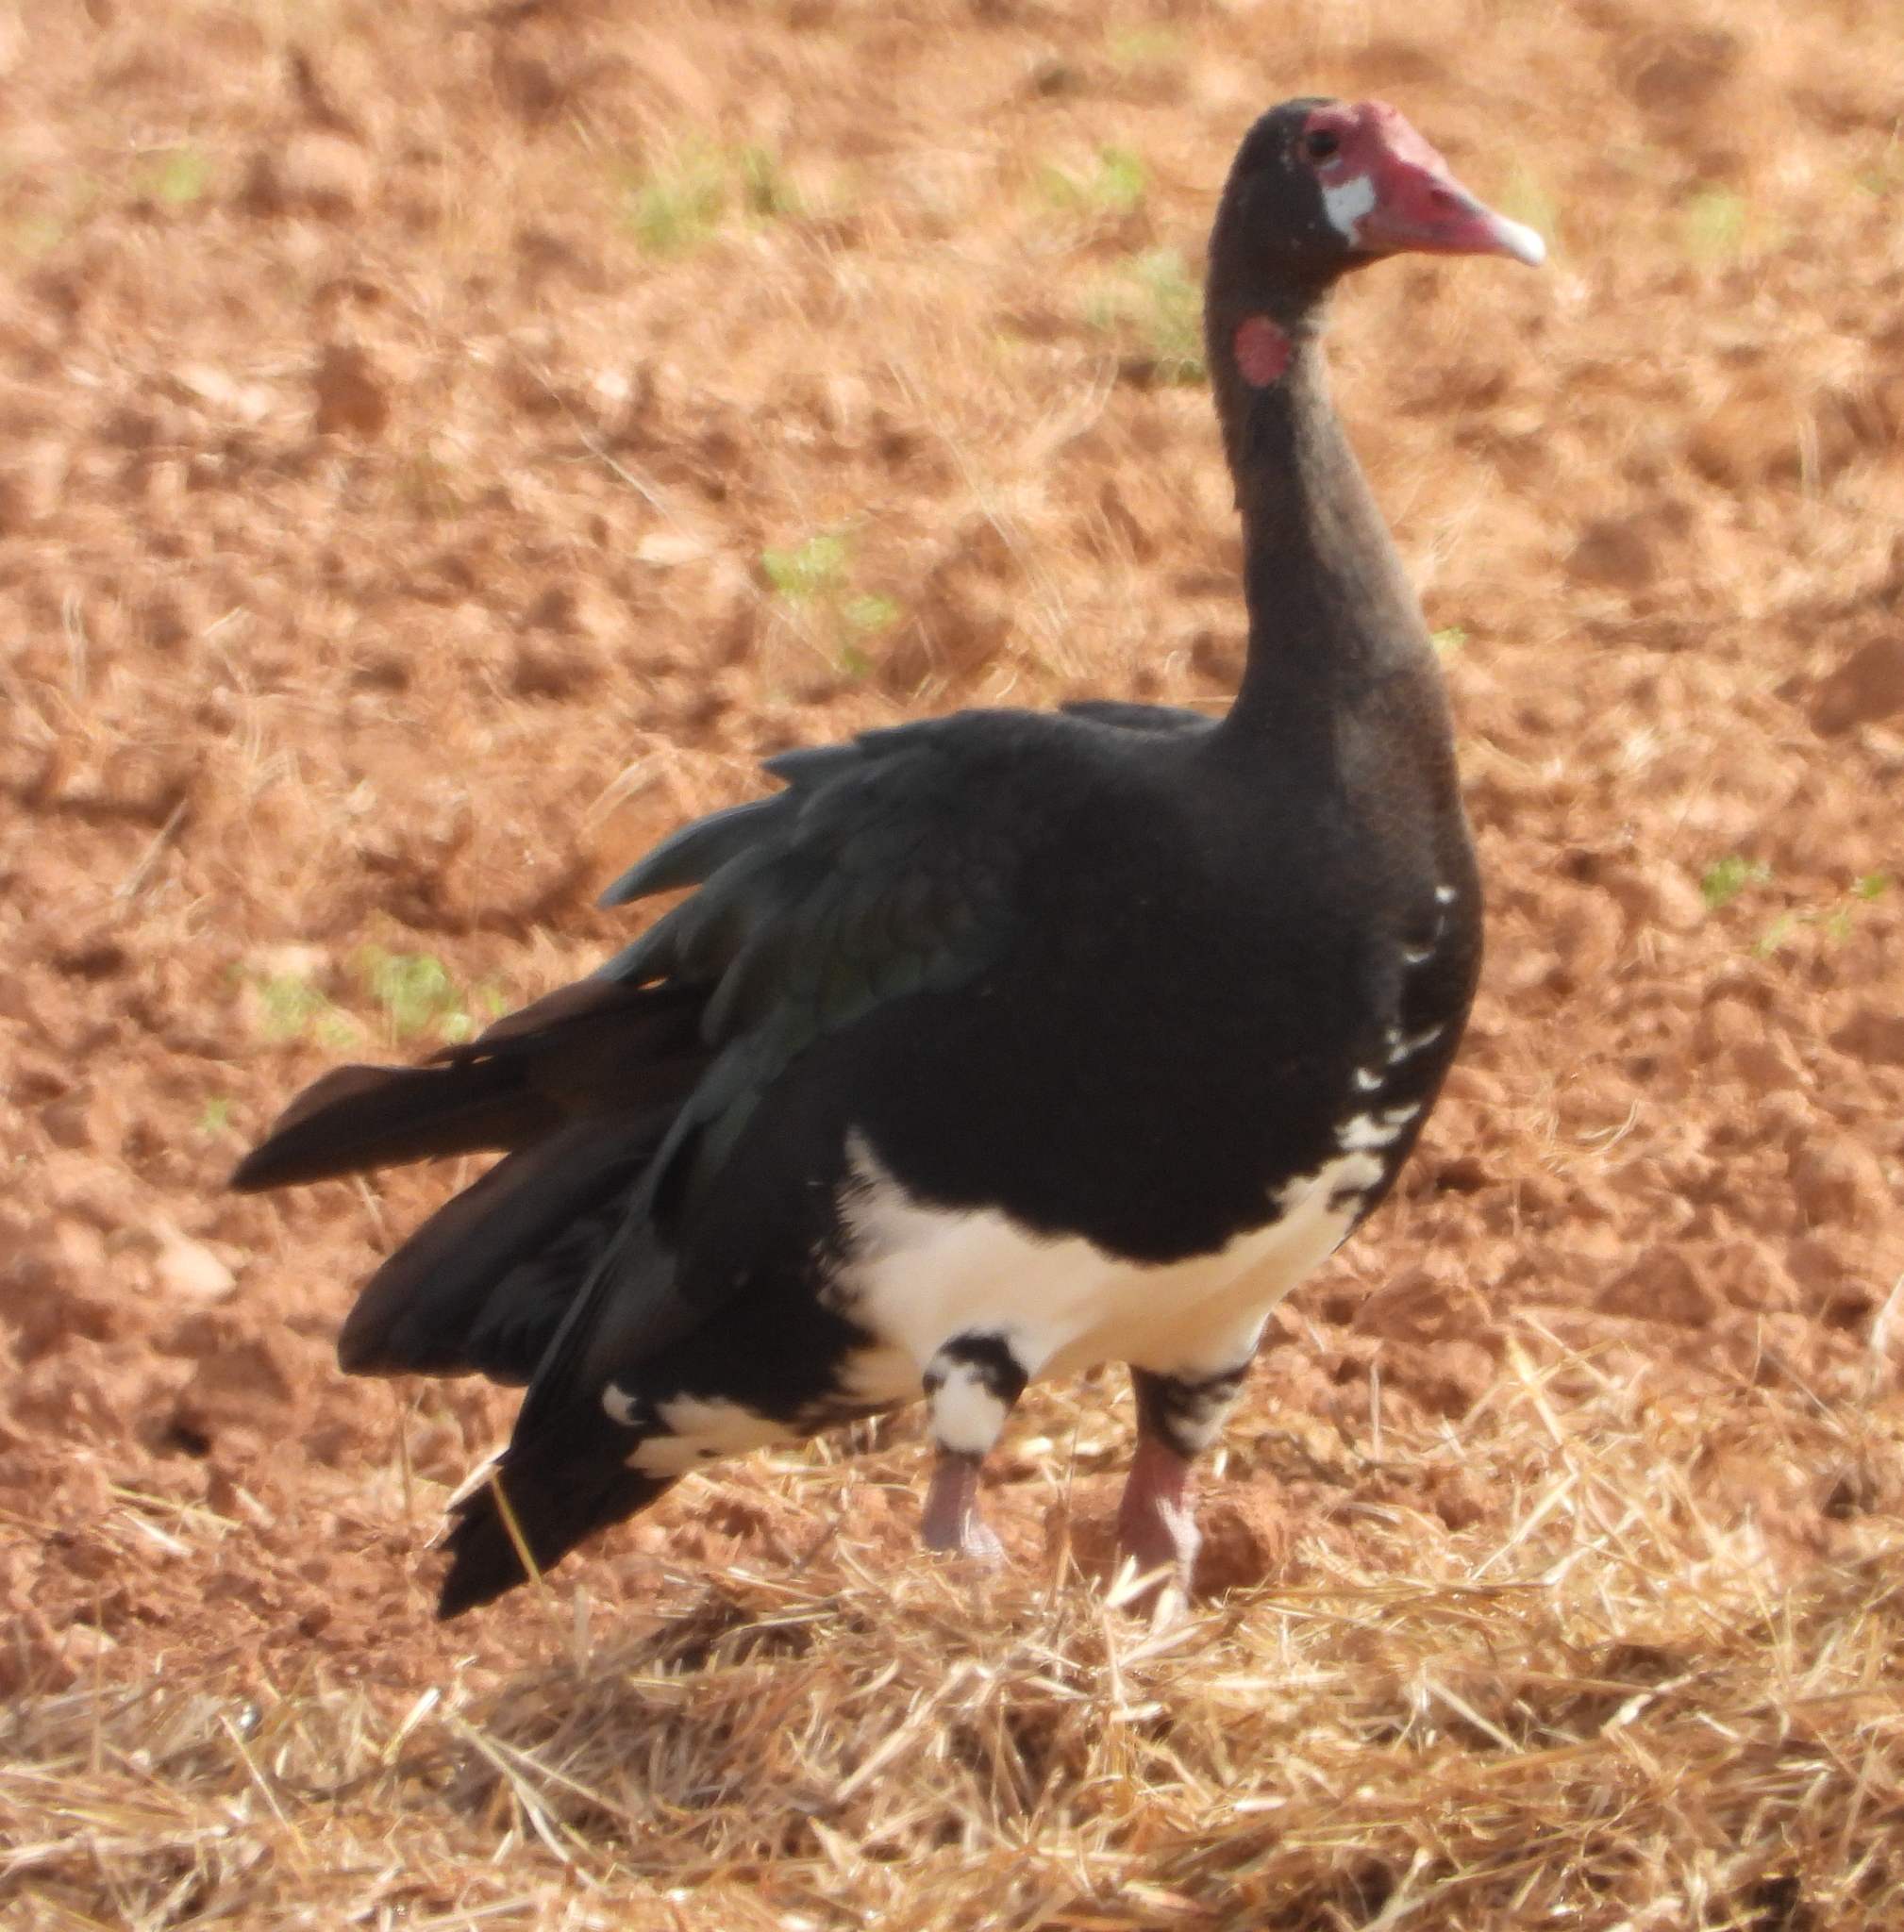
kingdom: Animalia
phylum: Chordata
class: Aves
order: Anseriformes
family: Anatidae
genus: Plectropterus
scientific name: Plectropterus gambensis
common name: Spur-winged goose
